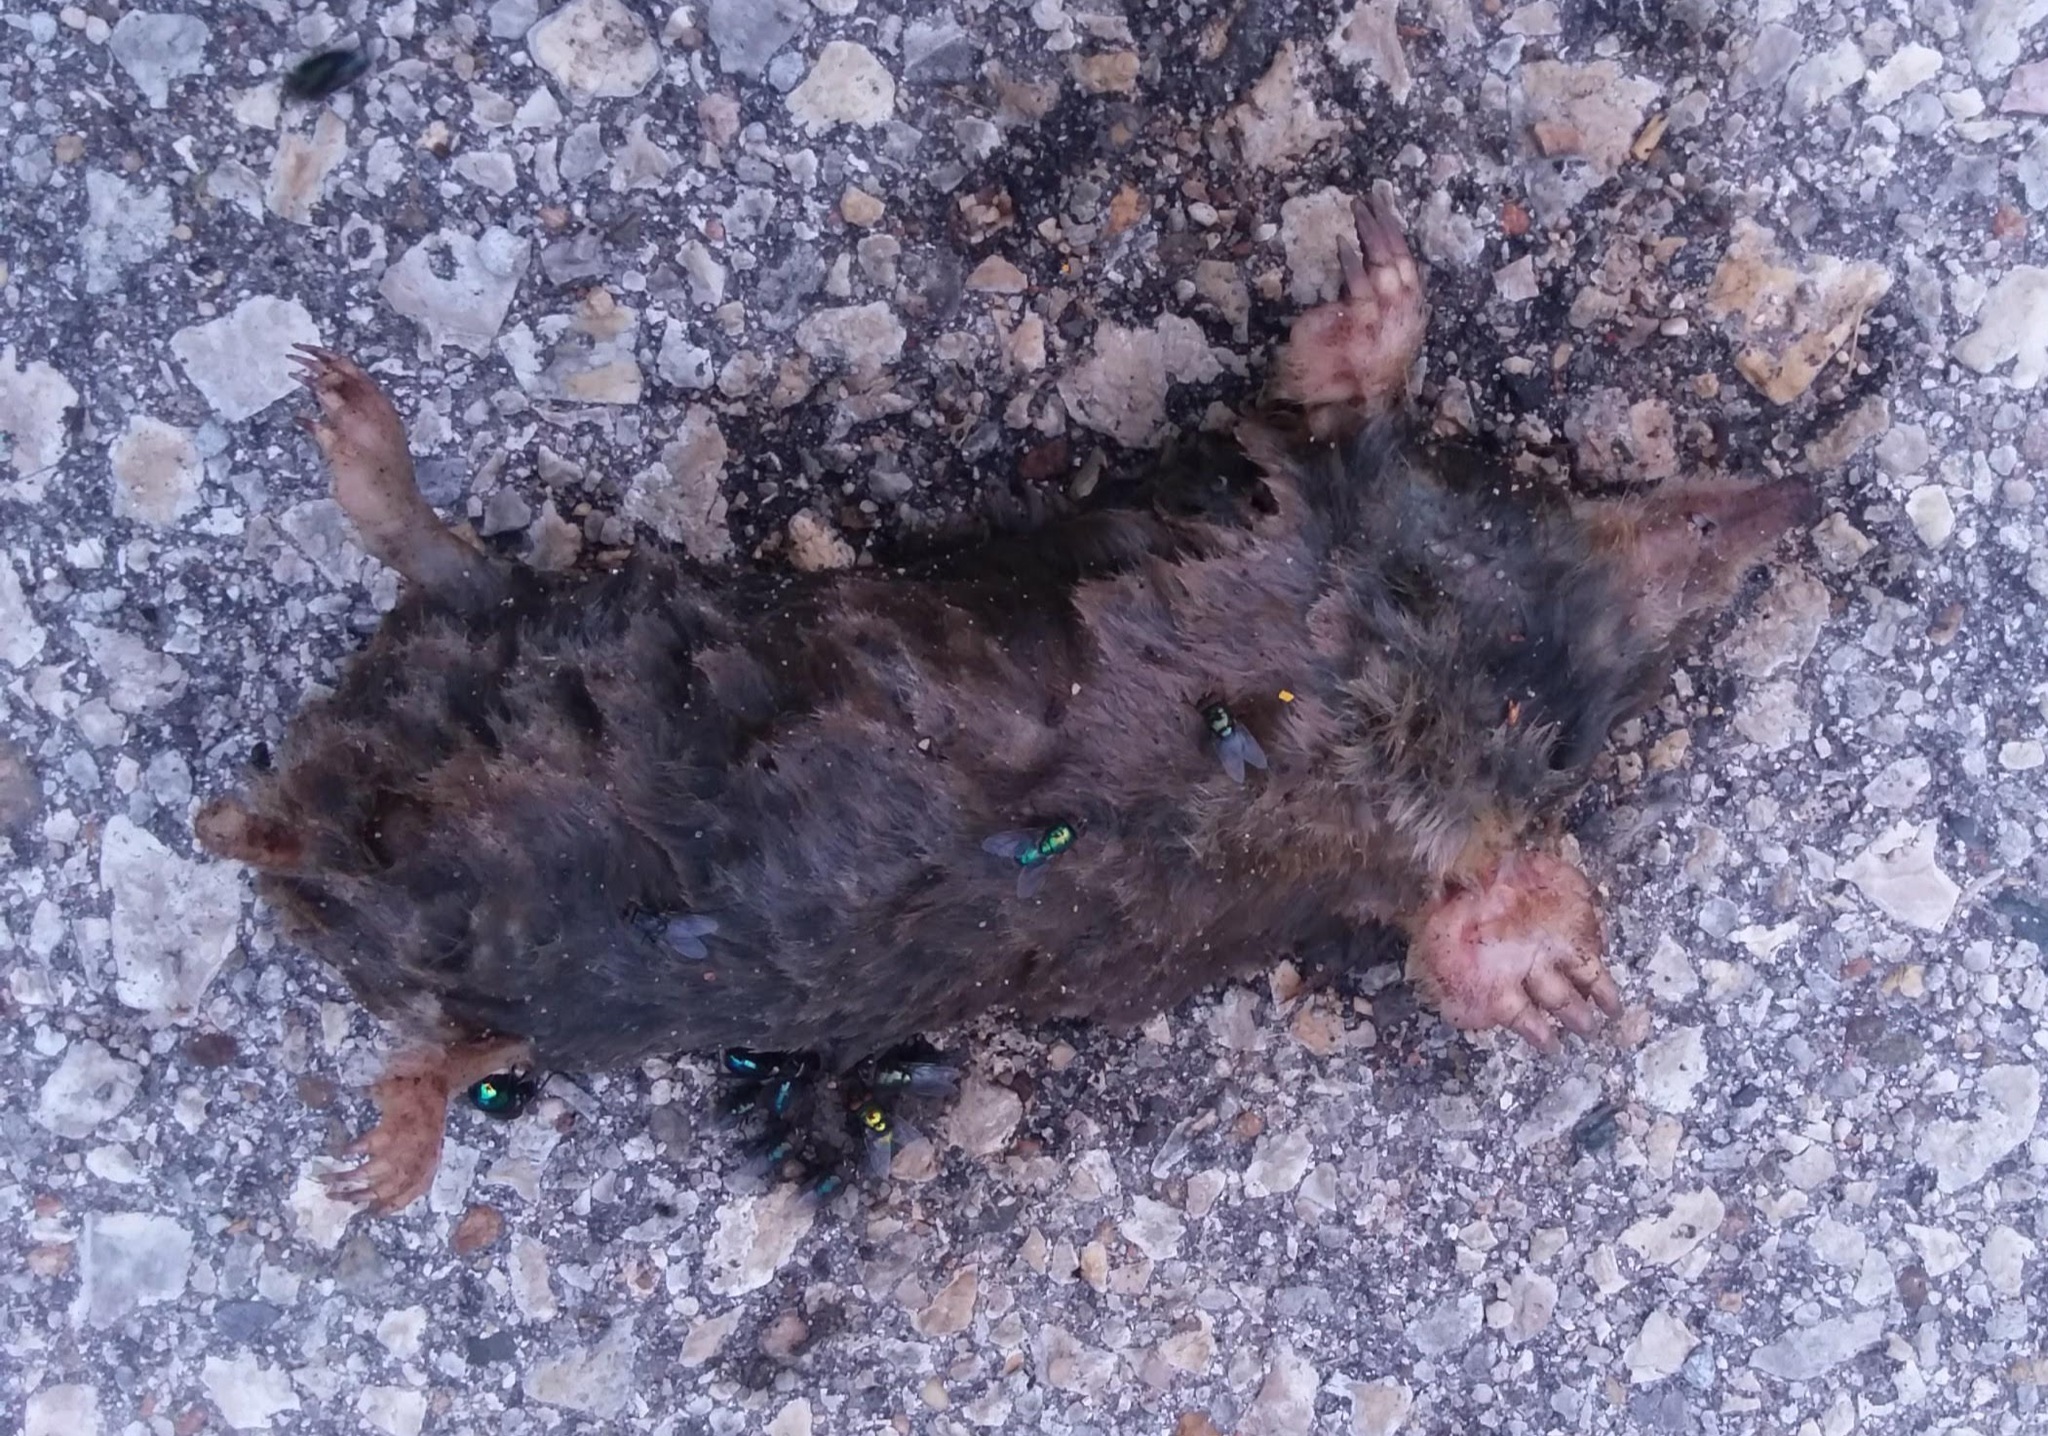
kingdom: Animalia
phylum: Chordata
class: Mammalia
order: Soricomorpha
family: Talpidae
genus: Scalopus
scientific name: Scalopus aquaticus
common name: Eastern mole
